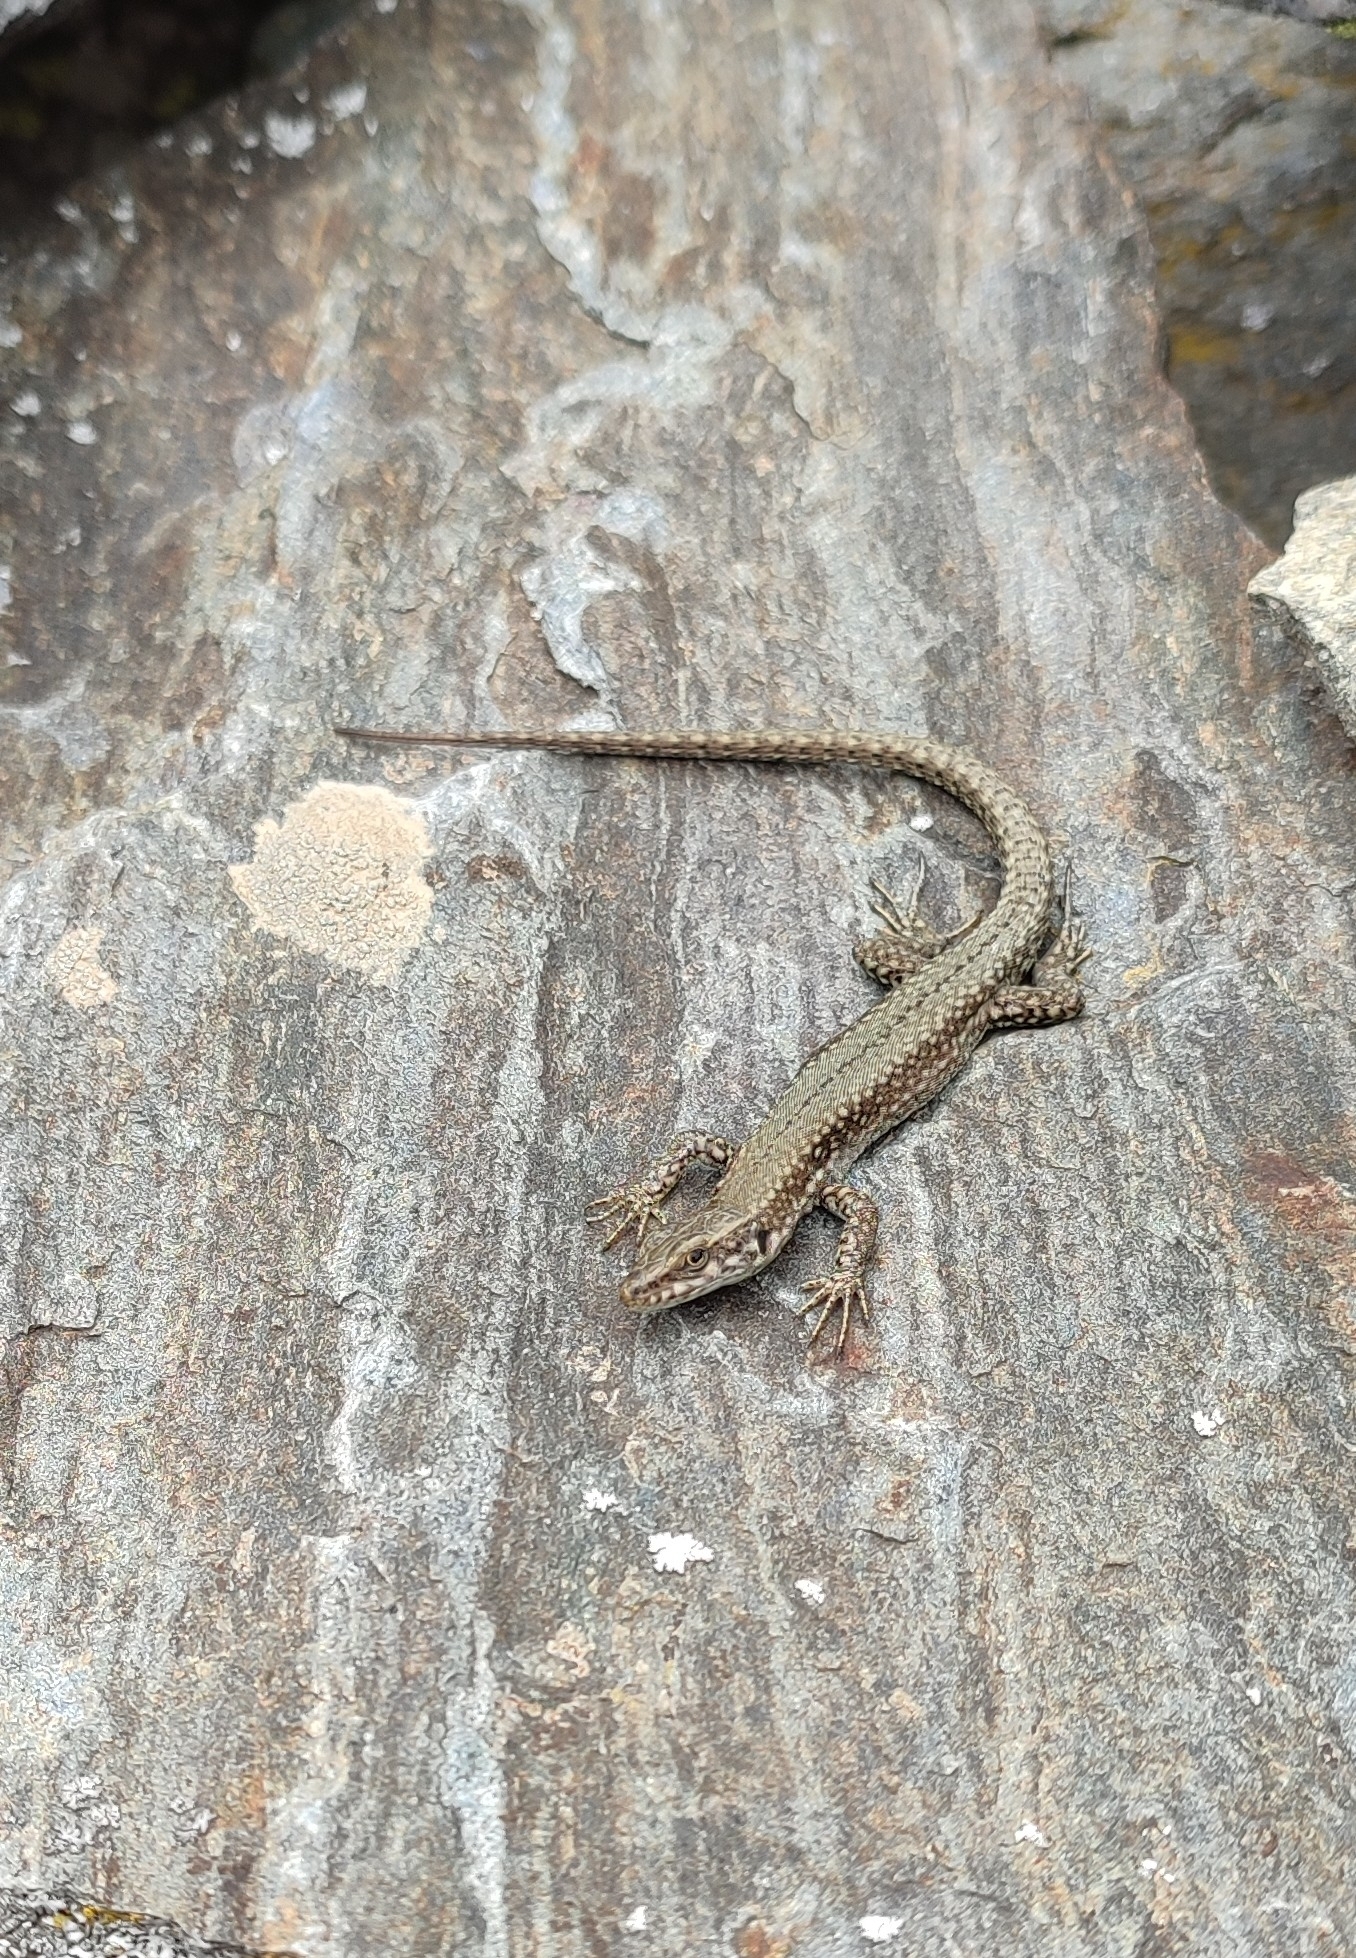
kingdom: Animalia
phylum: Chordata
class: Squamata
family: Lacertidae
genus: Podarcis
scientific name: Podarcis muralis
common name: Common wall lizard
